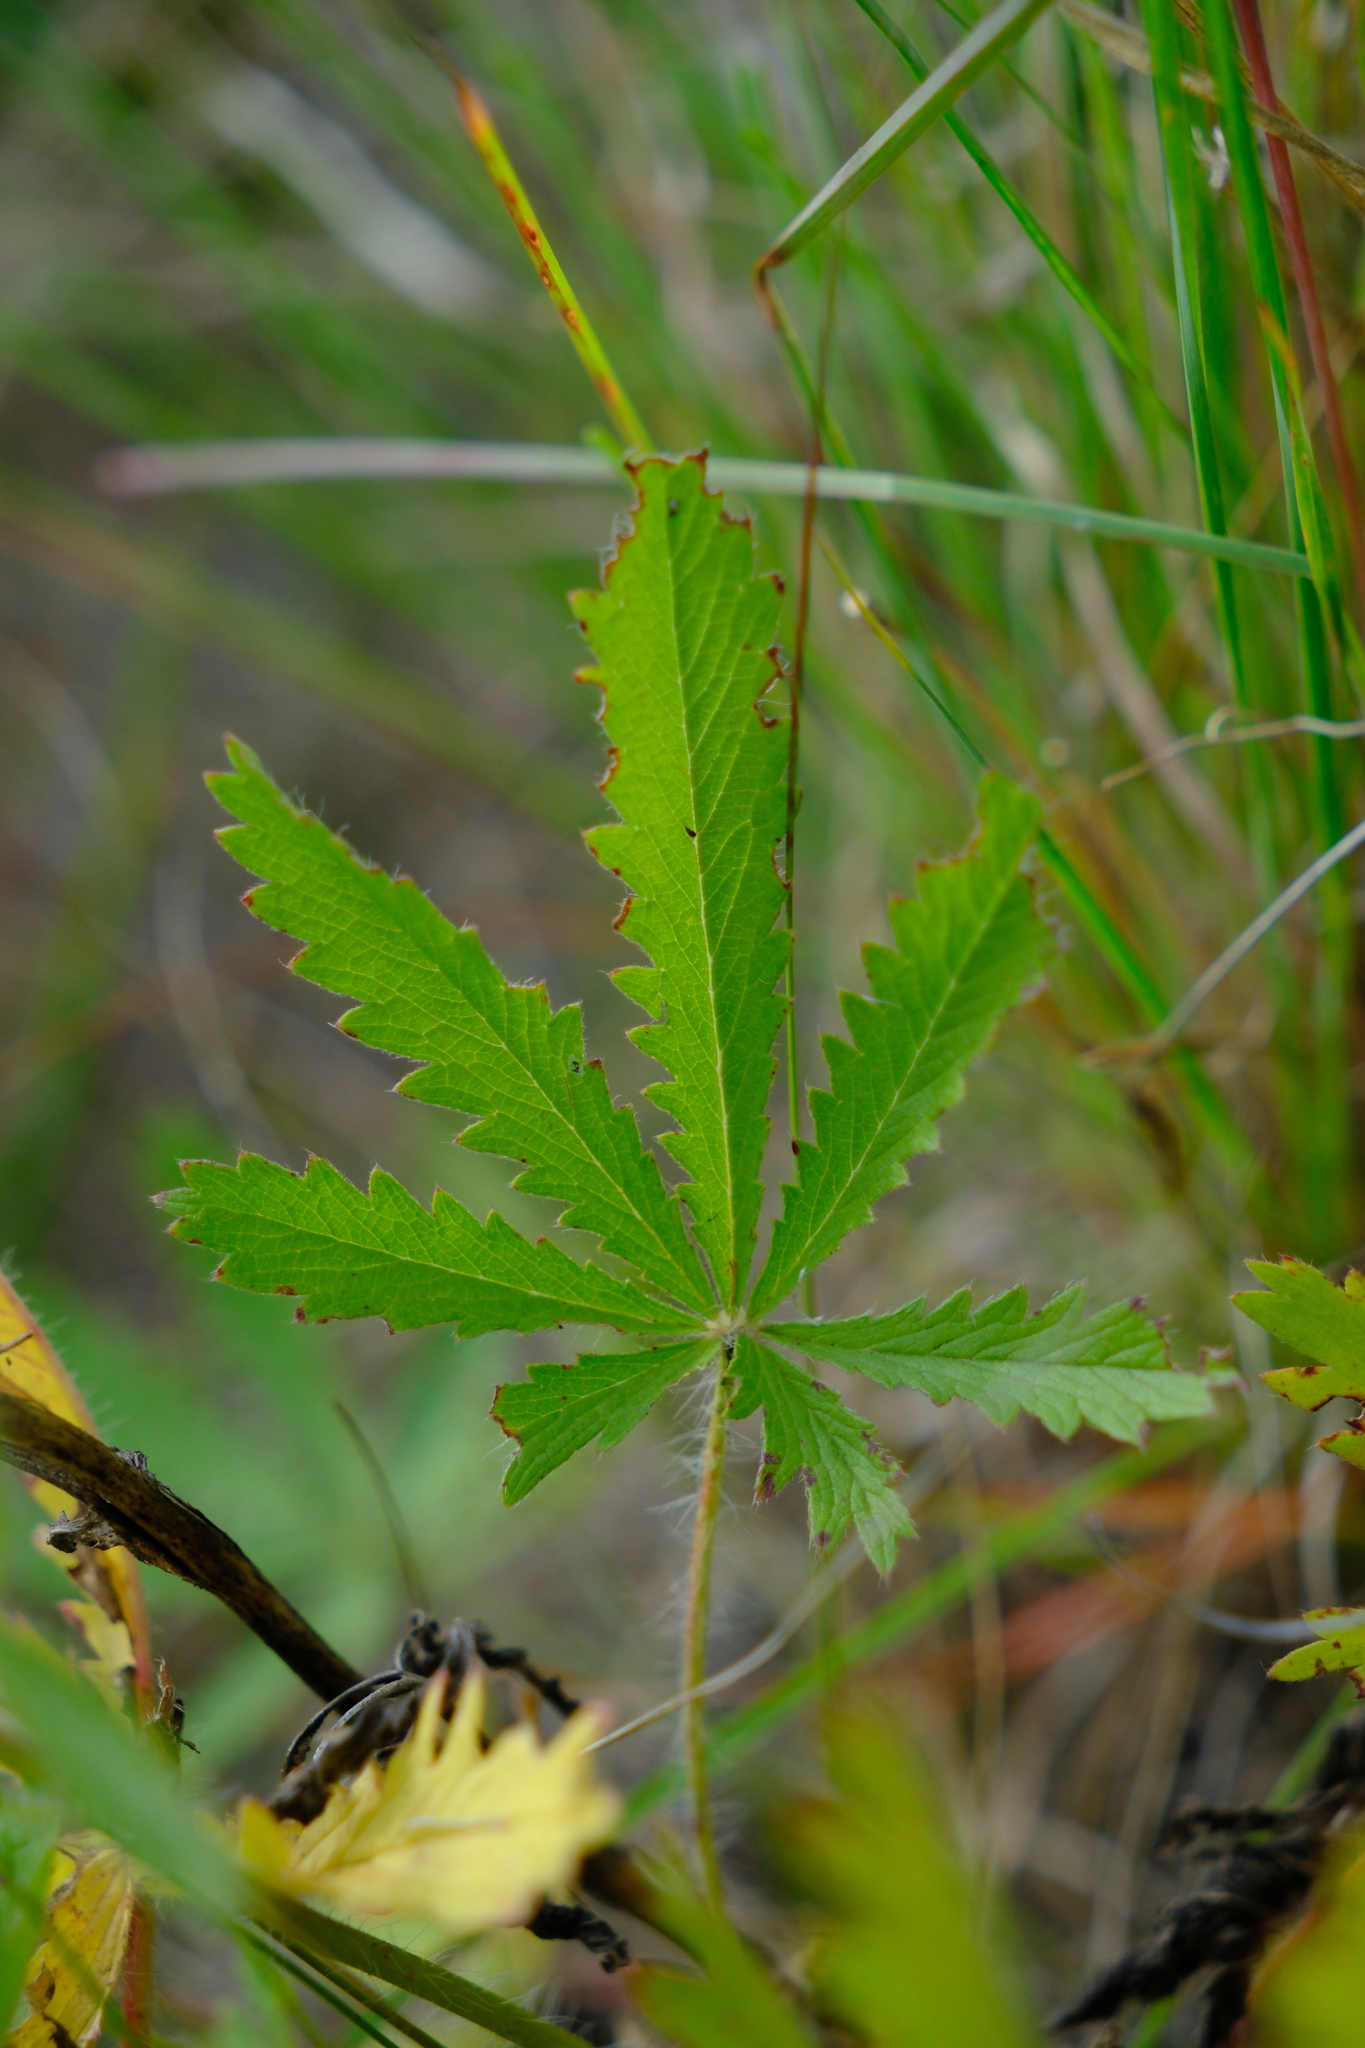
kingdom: Plantae
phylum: Tracheophyta
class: Magnoliopsida
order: Rosales
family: Rosaceae
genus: Potentilla
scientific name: Potentilla recta
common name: Sulphur cinquefoil
